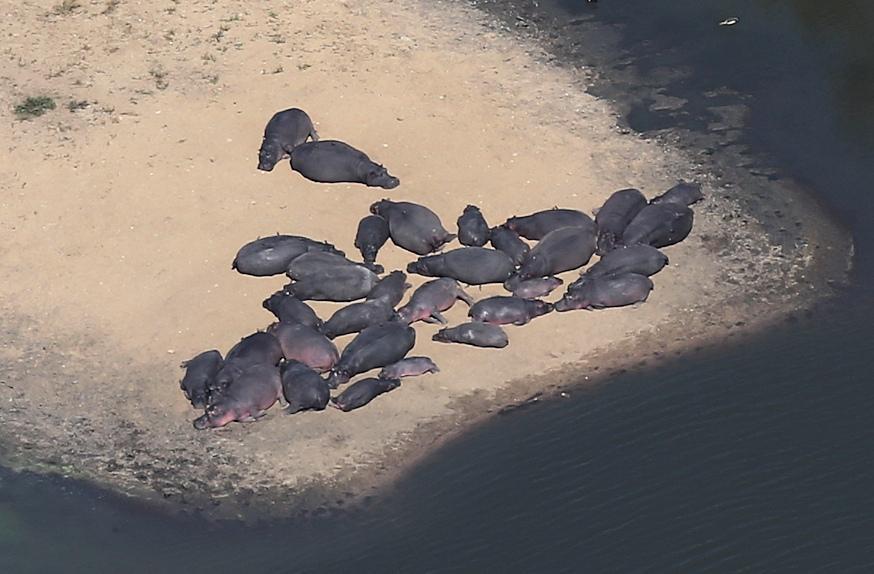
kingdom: Animalia
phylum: Chordata
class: Mammalia
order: Artiodactyla
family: Hippopotamidae
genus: Hippopotamus
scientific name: Hippopotamus amphibius
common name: Common hippopotamus
